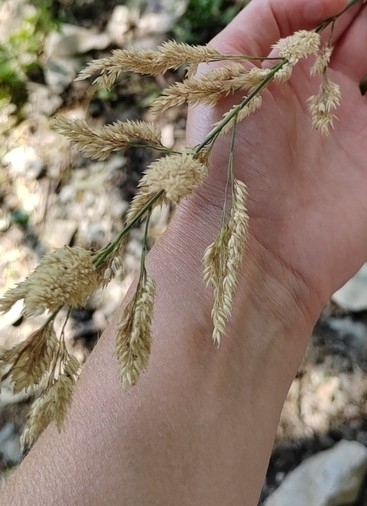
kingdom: Plantae
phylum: Tracheophyta
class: Liliopsida
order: Poales
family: Poaceae
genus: Phalaris
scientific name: Phalaris arundinacea
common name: Reed canary-grass
